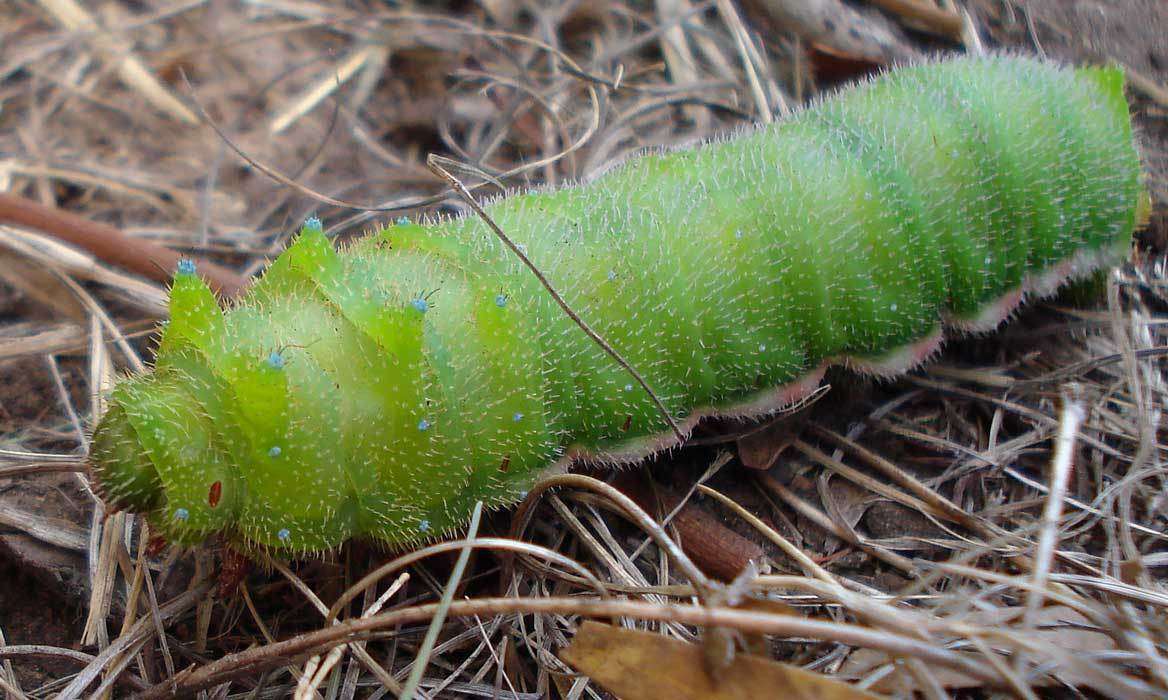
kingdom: Animalia
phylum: Arthropoda
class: Insecta
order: Lepidoptera
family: Saturniidae
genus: Opodiphthera
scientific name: Opodiphthera
